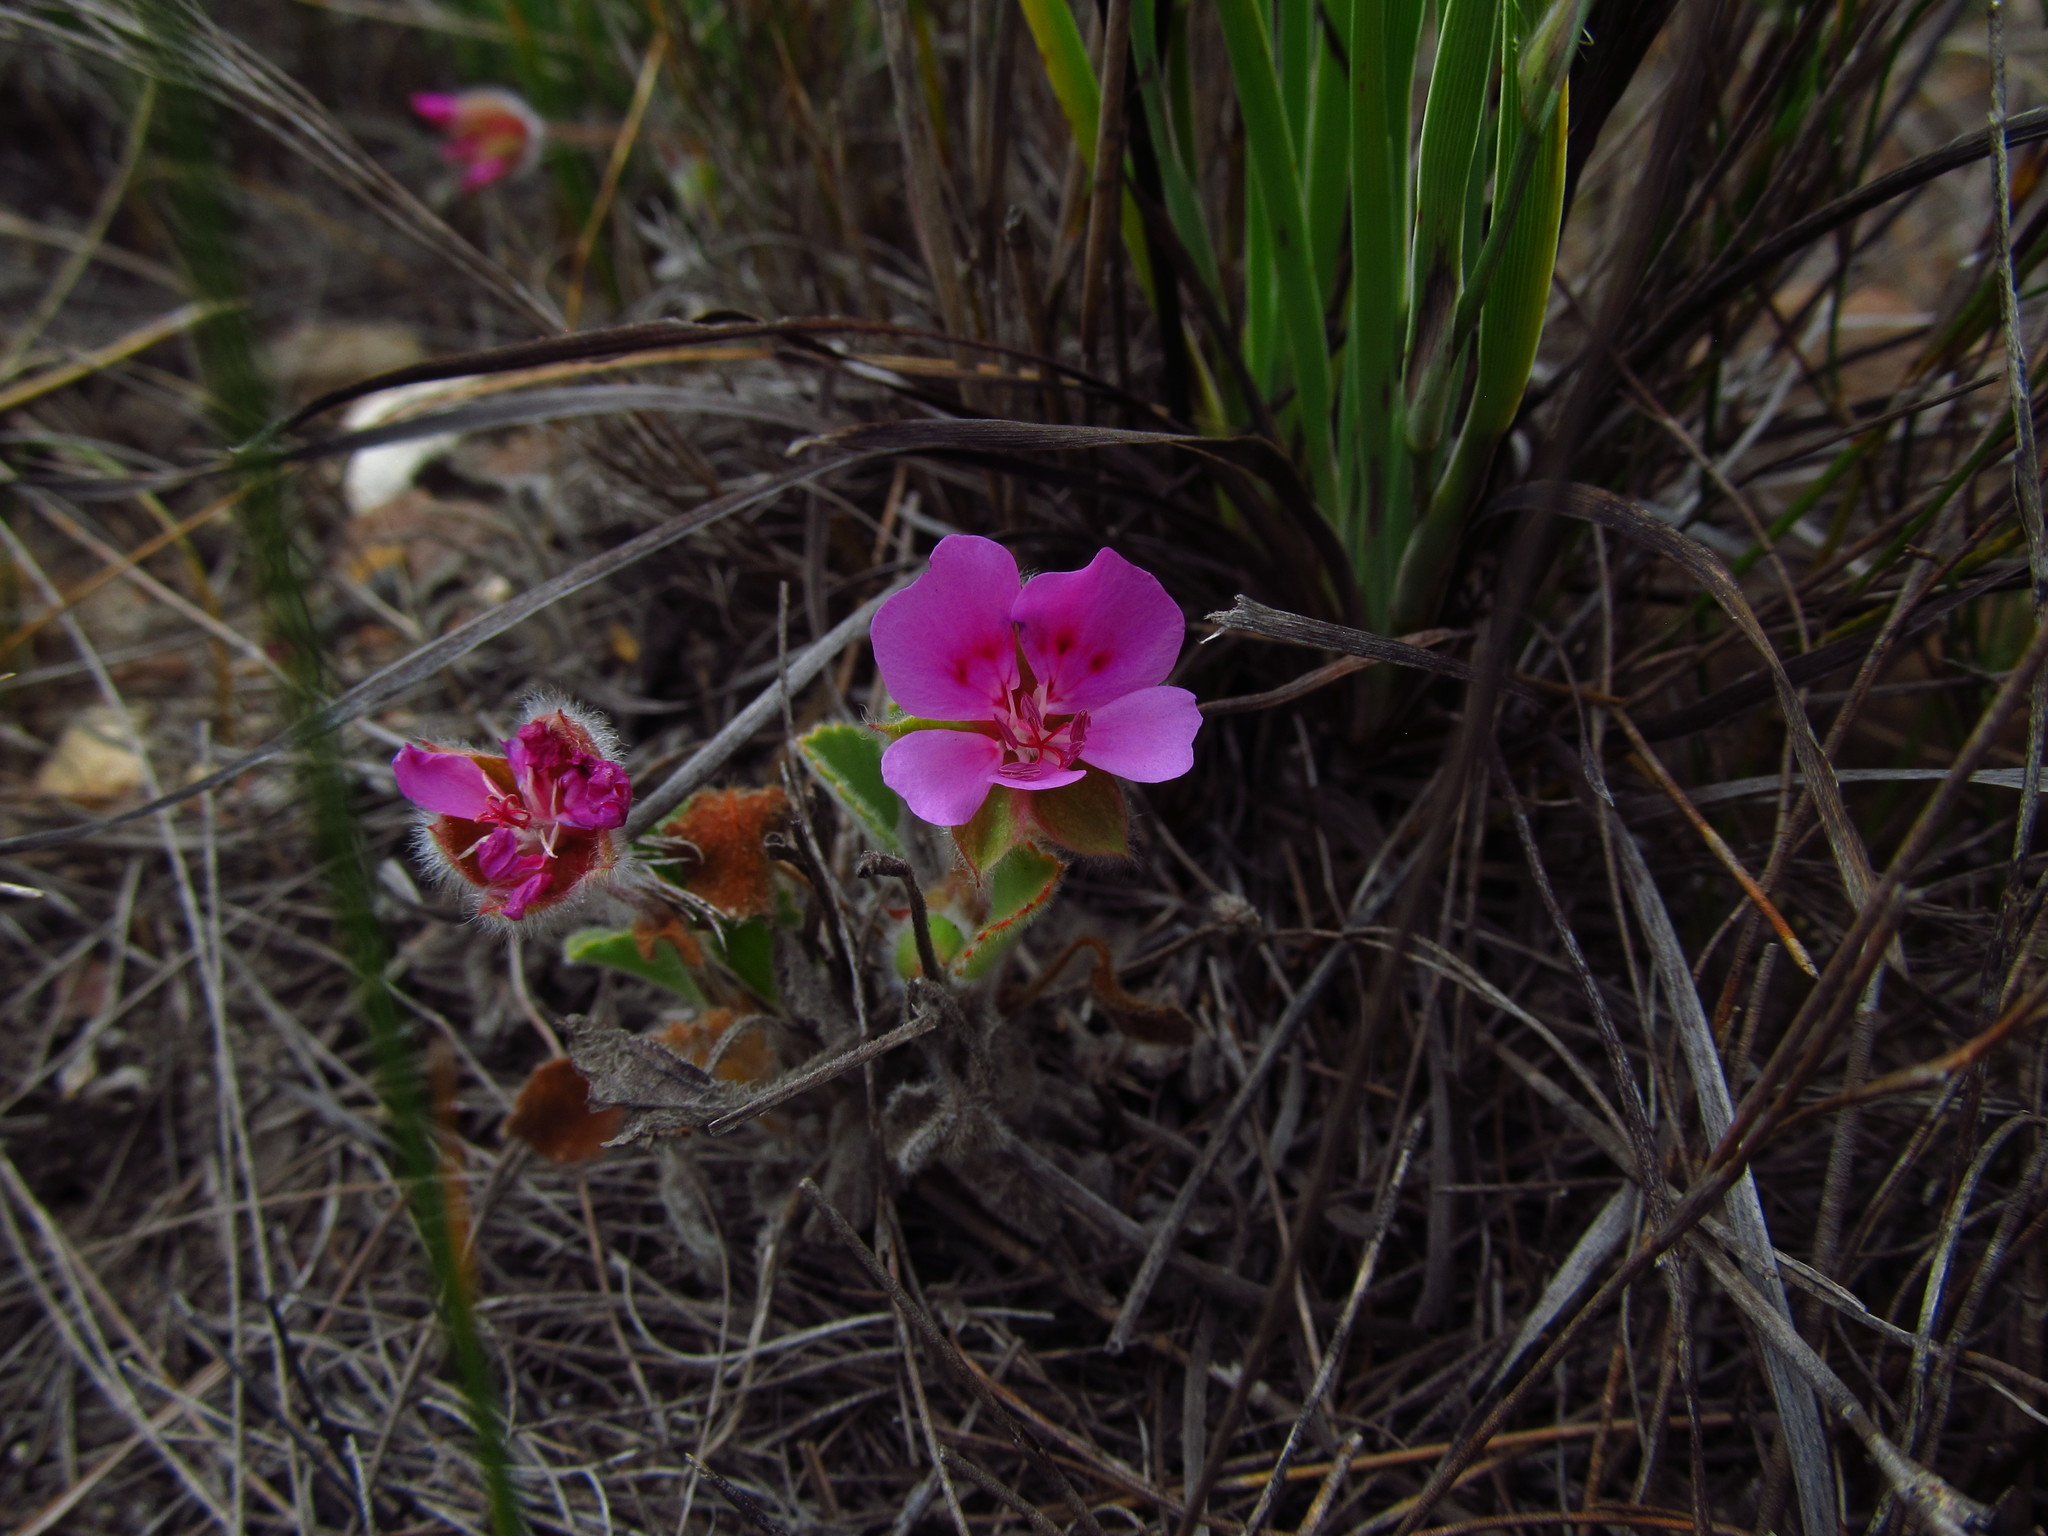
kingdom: Plantae
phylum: Tracheophyta
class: Magnoliopsida
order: Geraniales
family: Geraniaceae
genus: Pelargonium
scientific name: Pelargonium ovale
